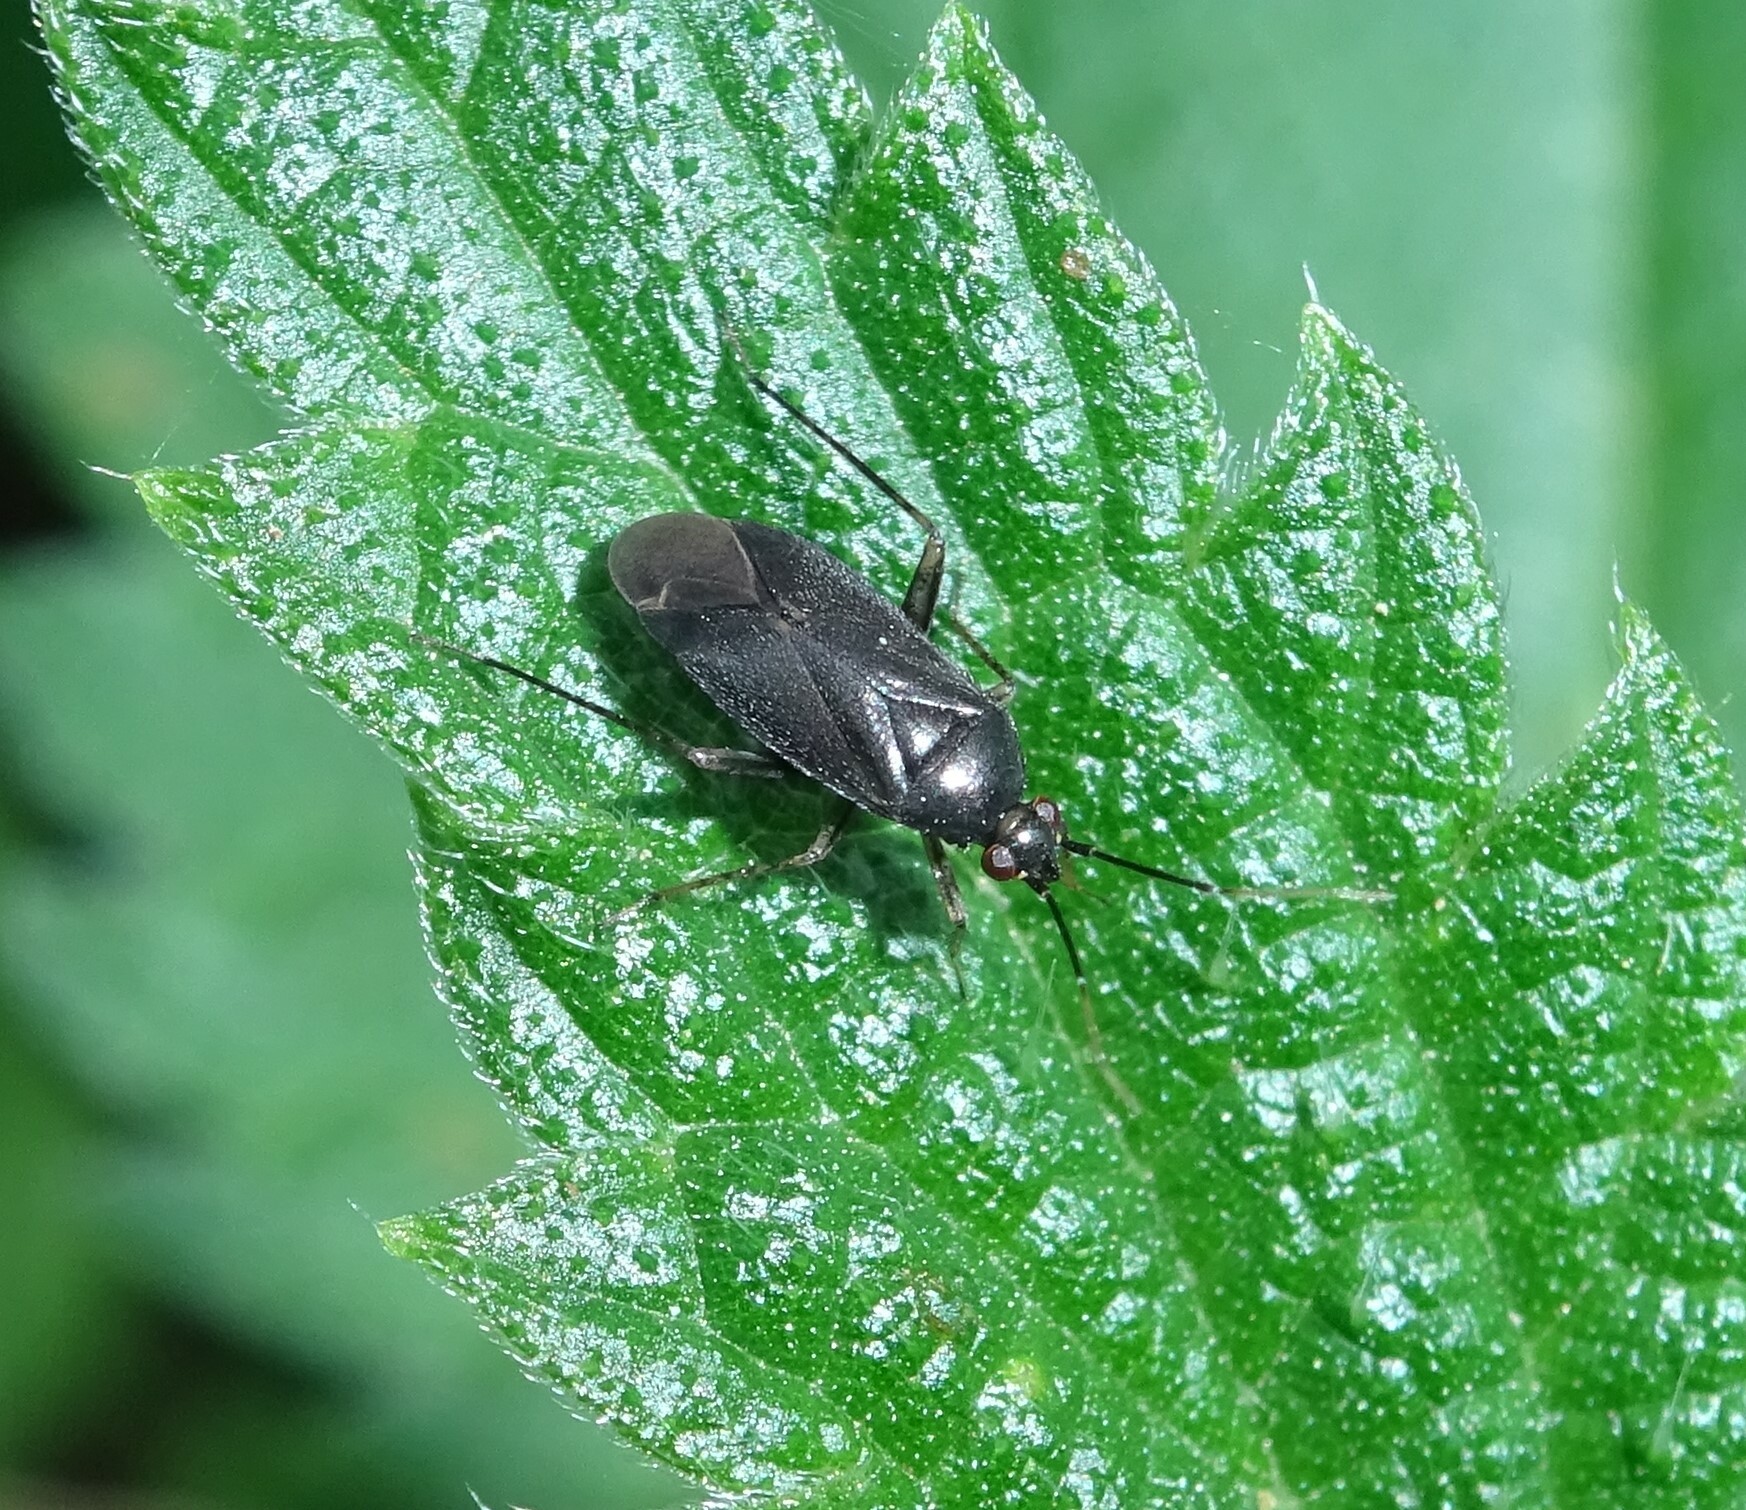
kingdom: Animalia
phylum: Arthropoda
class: Insecta
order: Hemiptera
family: Miridae
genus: Plagiognathus
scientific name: Plagiognathus arbustorum
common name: Plant bug
